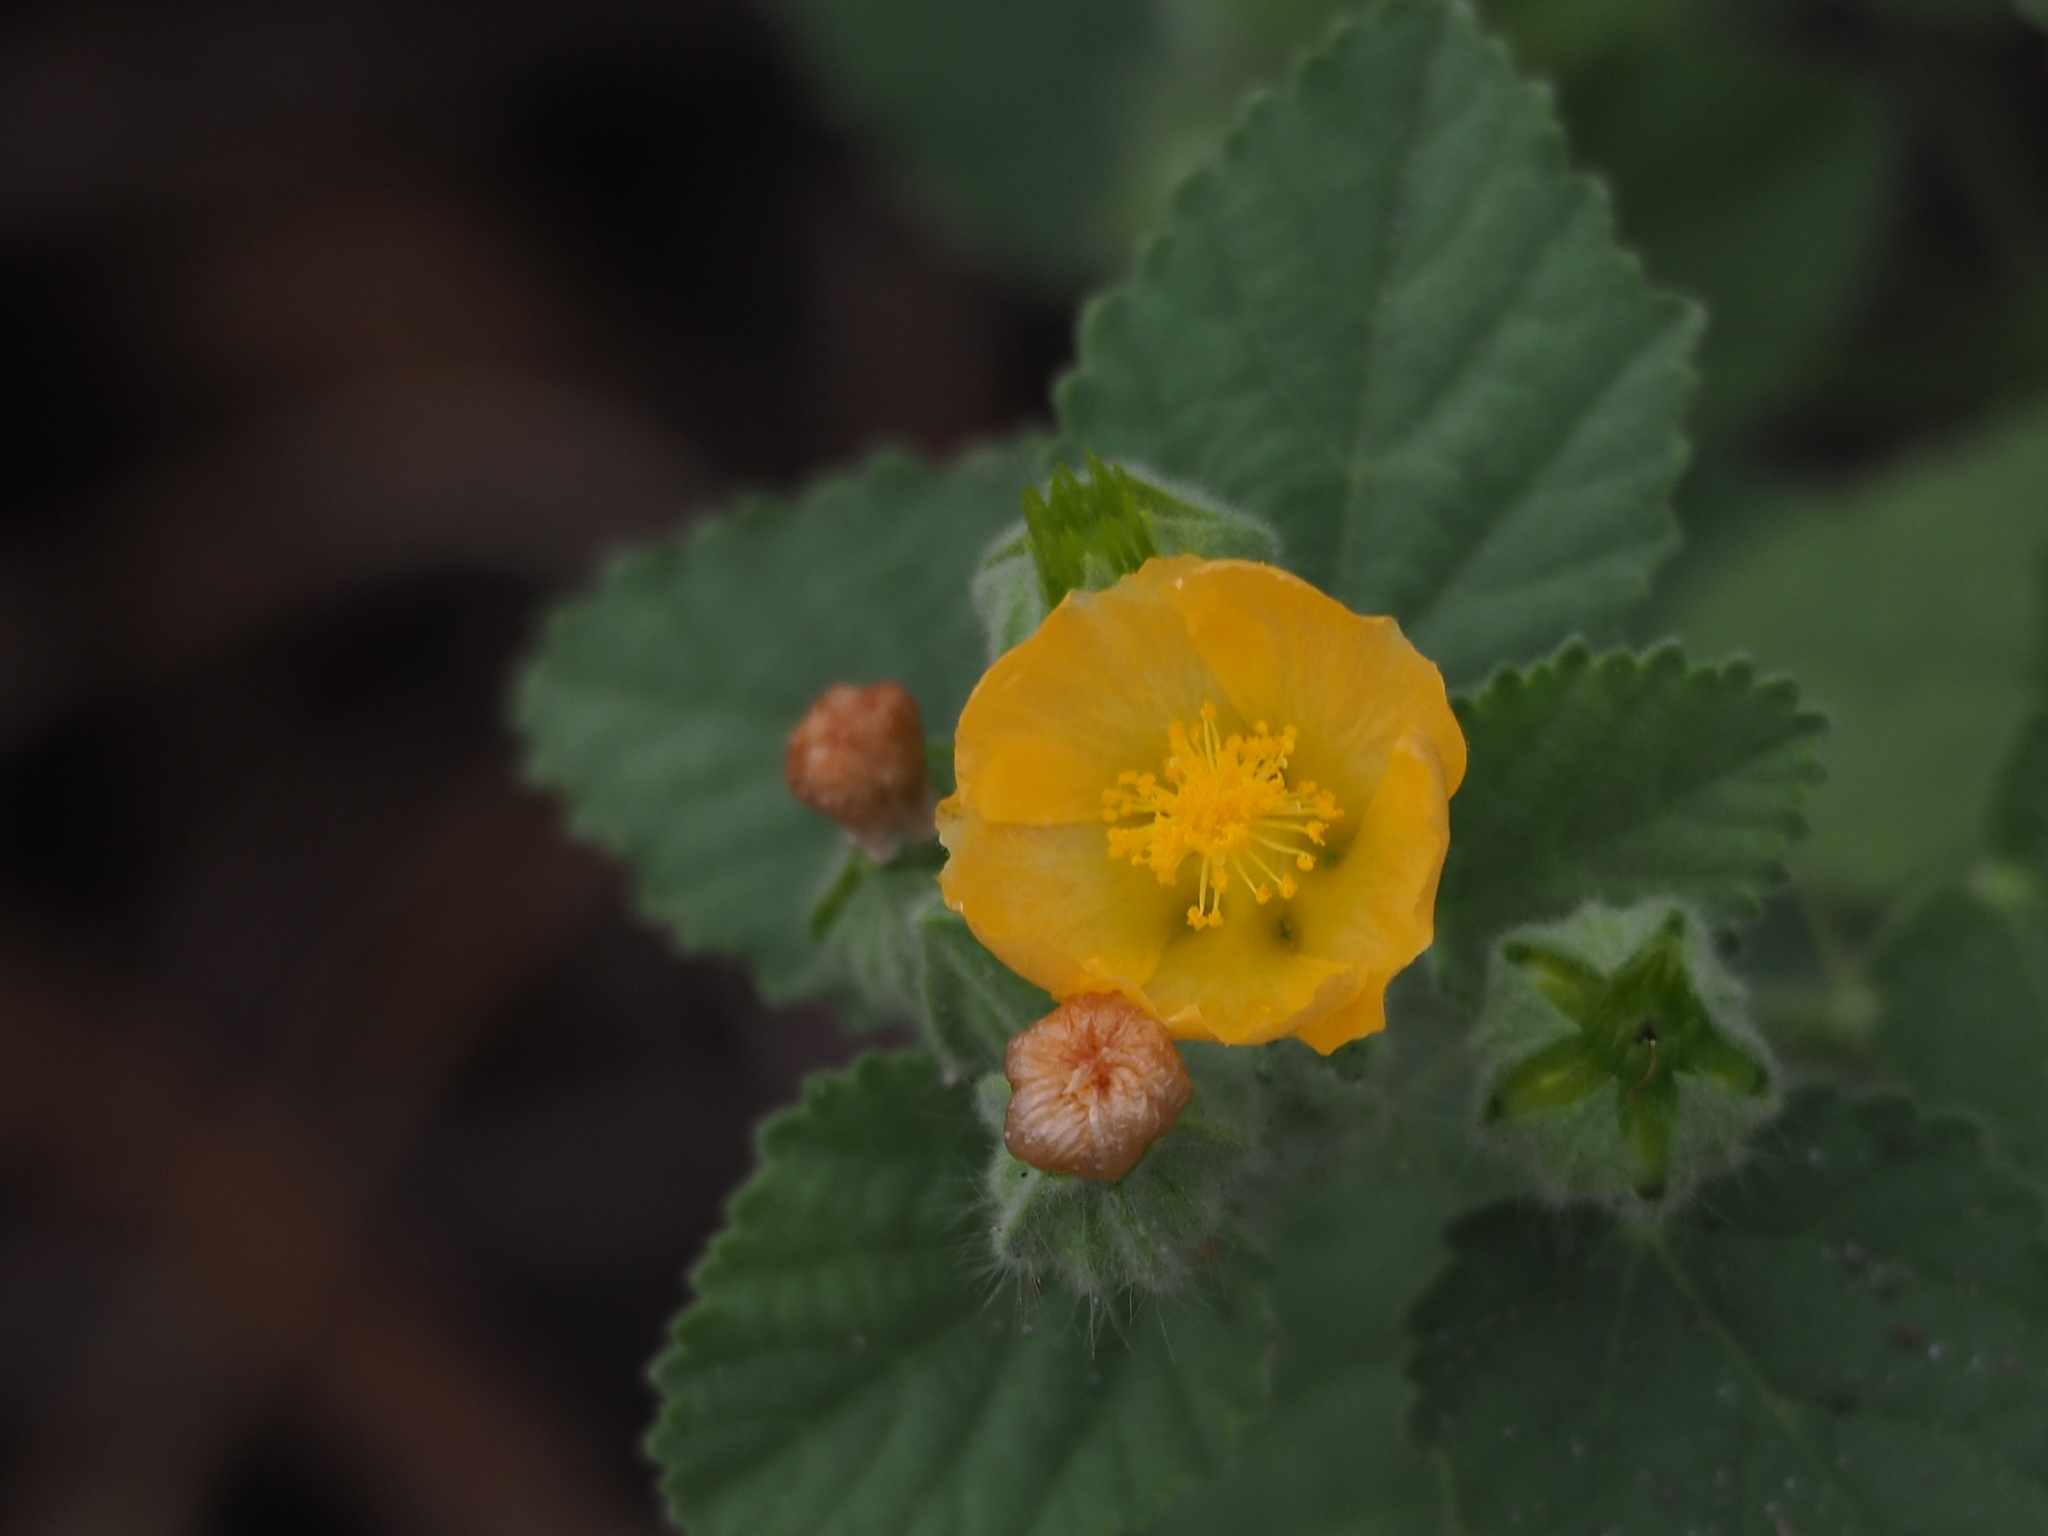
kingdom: Plantae
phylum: Tracheophyta
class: Magnoliopsida
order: Malvales
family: Malvaceae
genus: Sida
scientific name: Sida cordifolia
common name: Ilima
